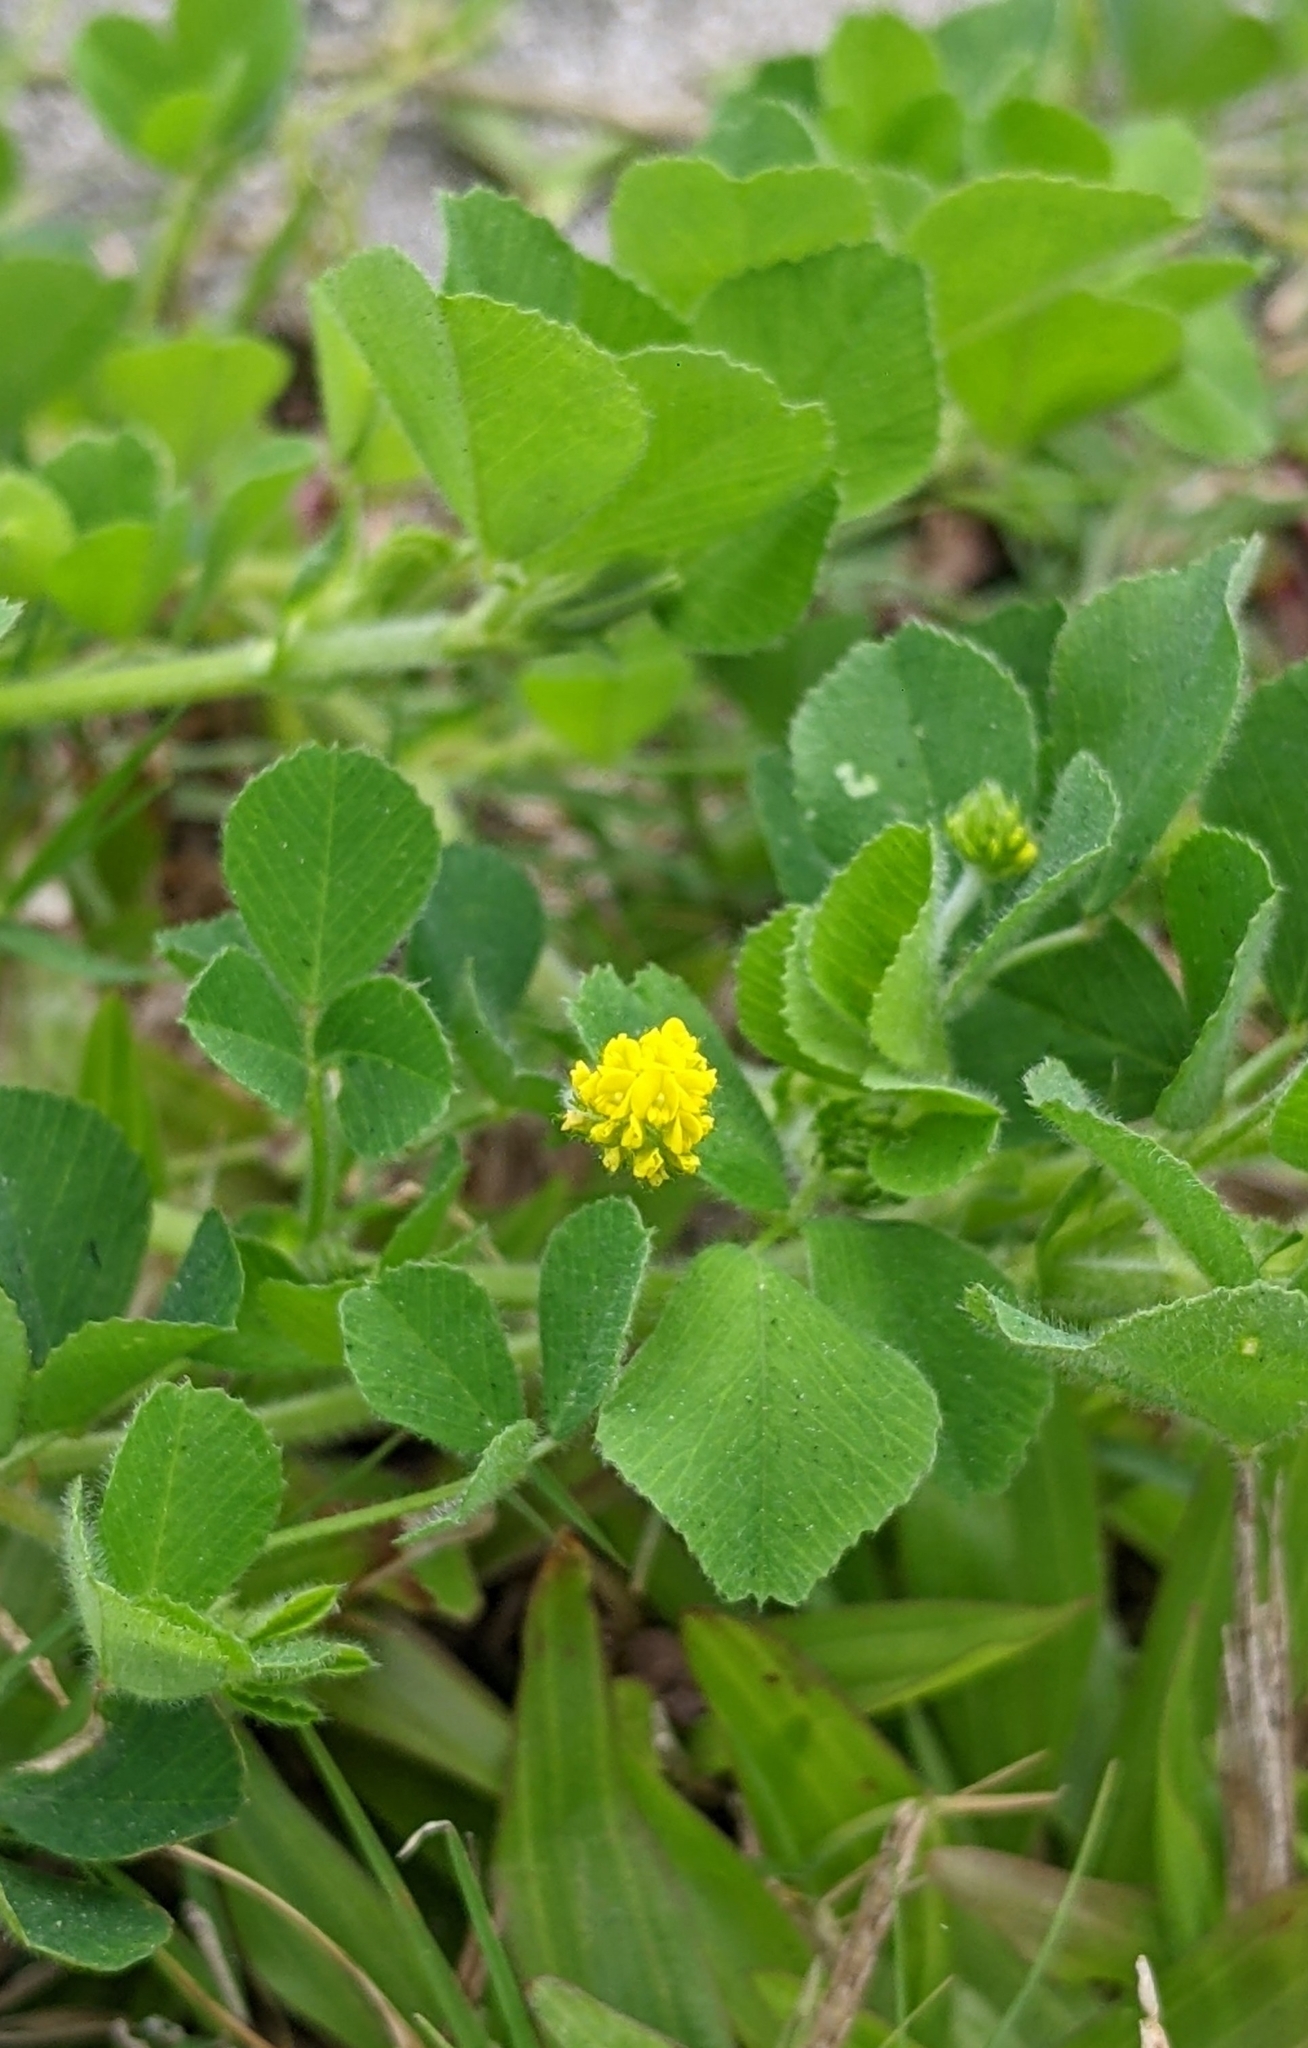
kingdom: Plantae
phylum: Tracheophyta
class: Magnoliopsida
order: Fabales
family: Fabaceae
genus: Medicago
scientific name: Medicago lupulina
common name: Black medick
